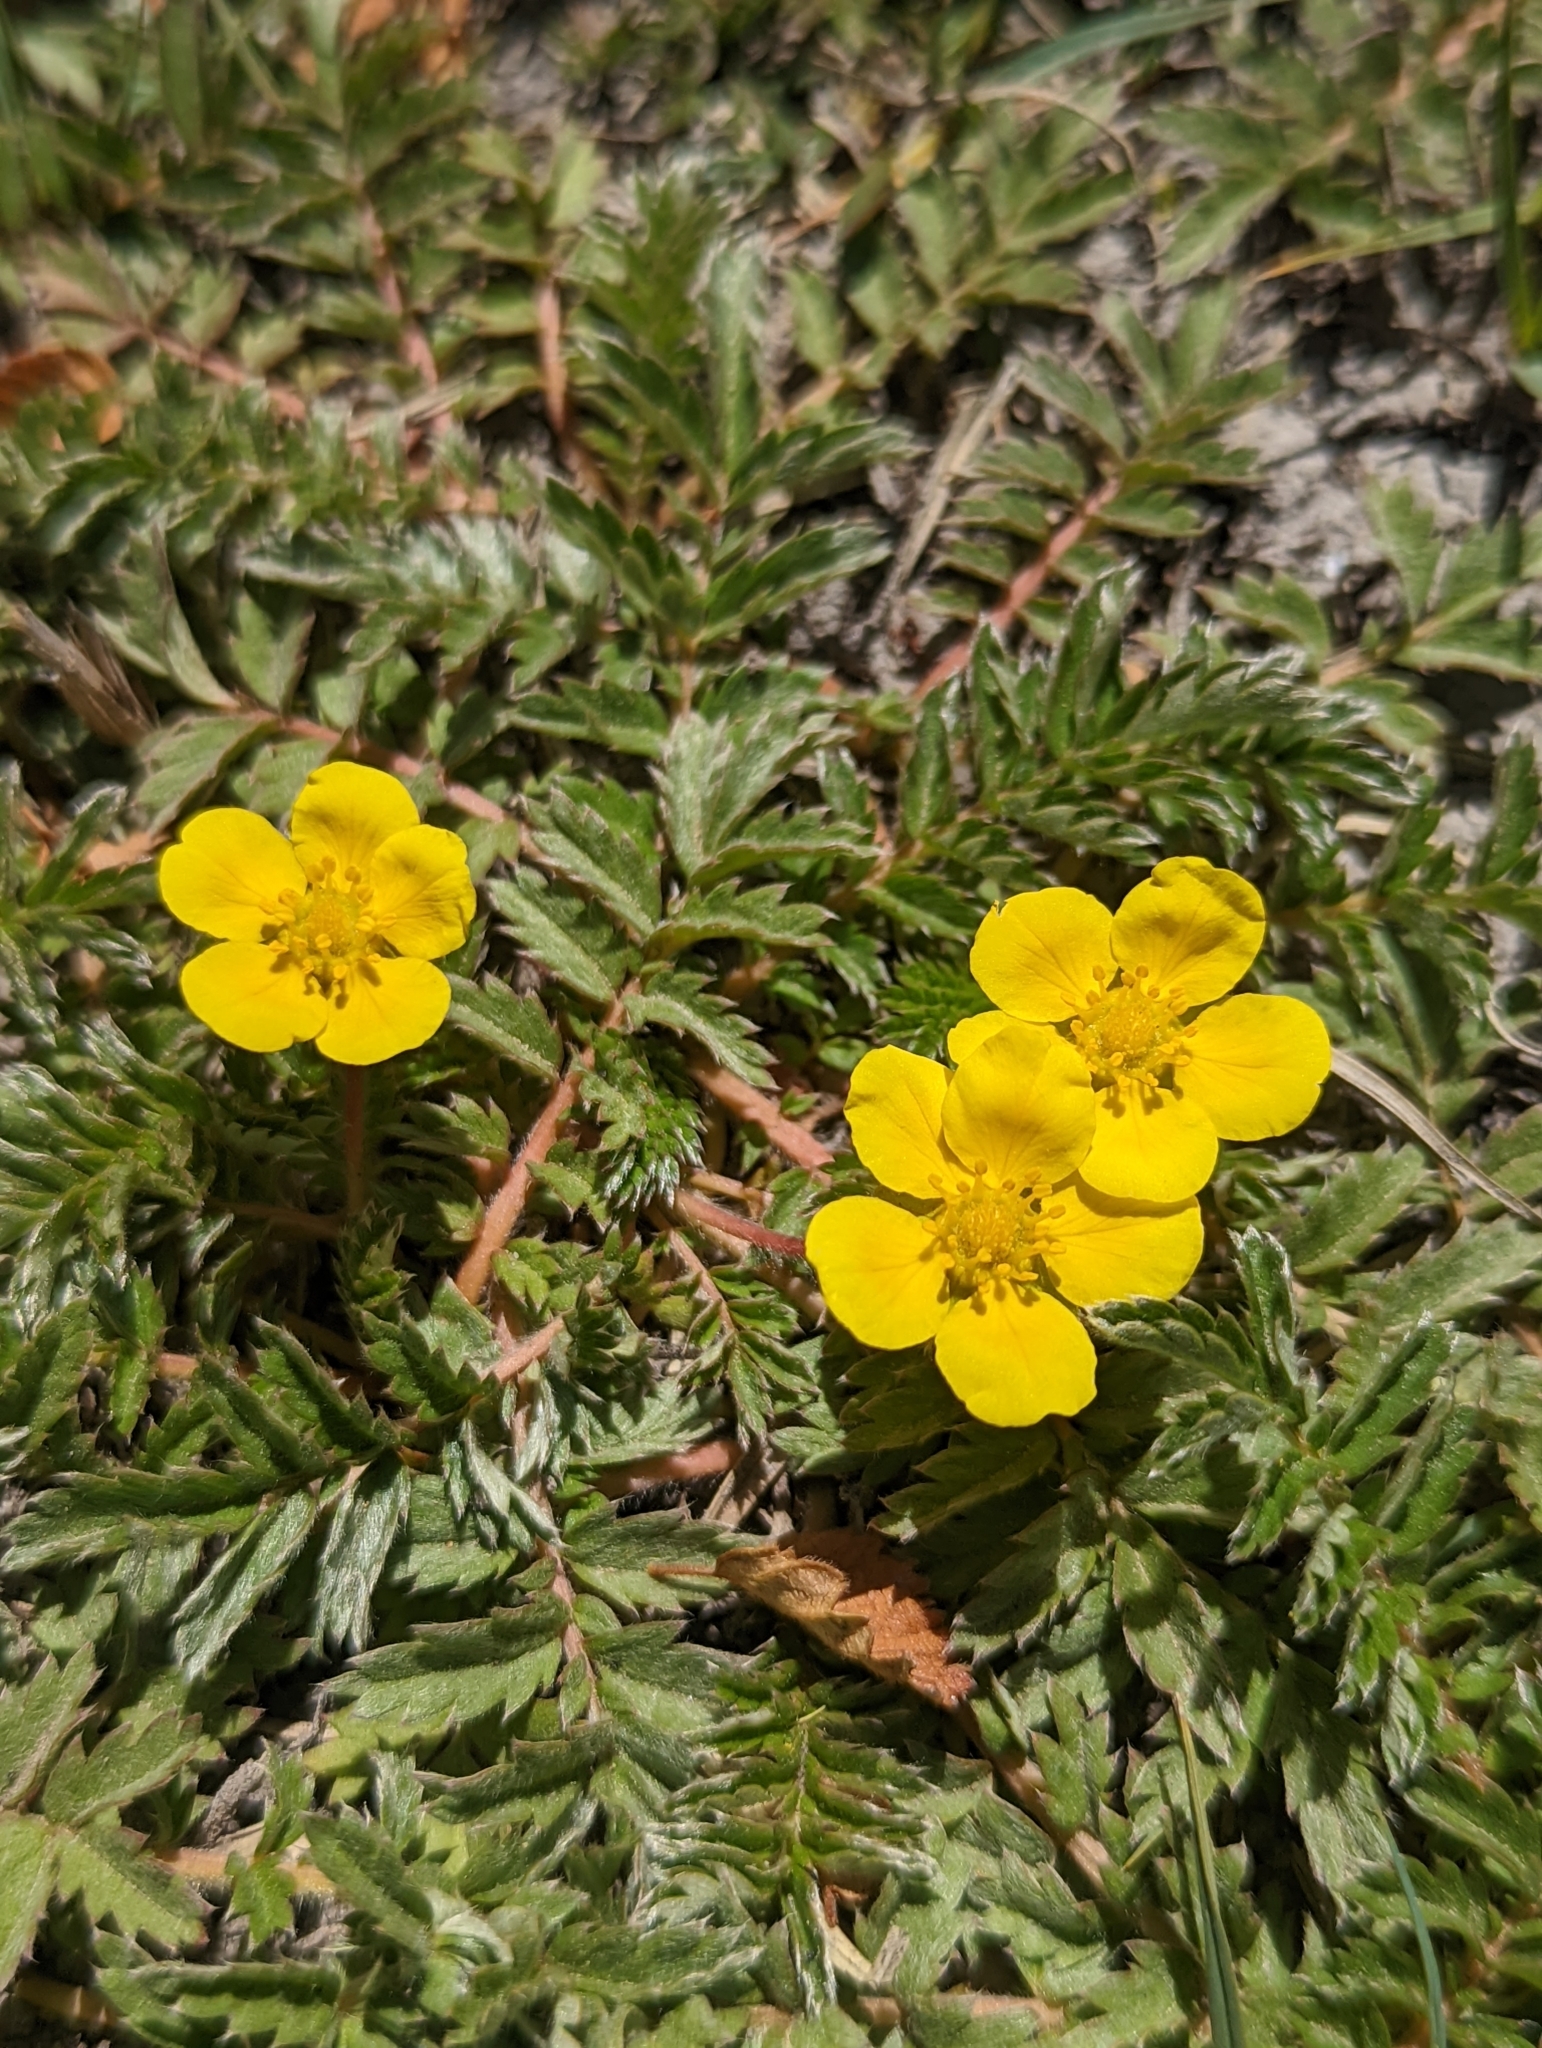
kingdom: Plantae
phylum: Tracheophyta
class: Magnoliopsida
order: Rosales
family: Rosaceae
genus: Argentina
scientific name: Argentina anserina
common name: Common silverweed
